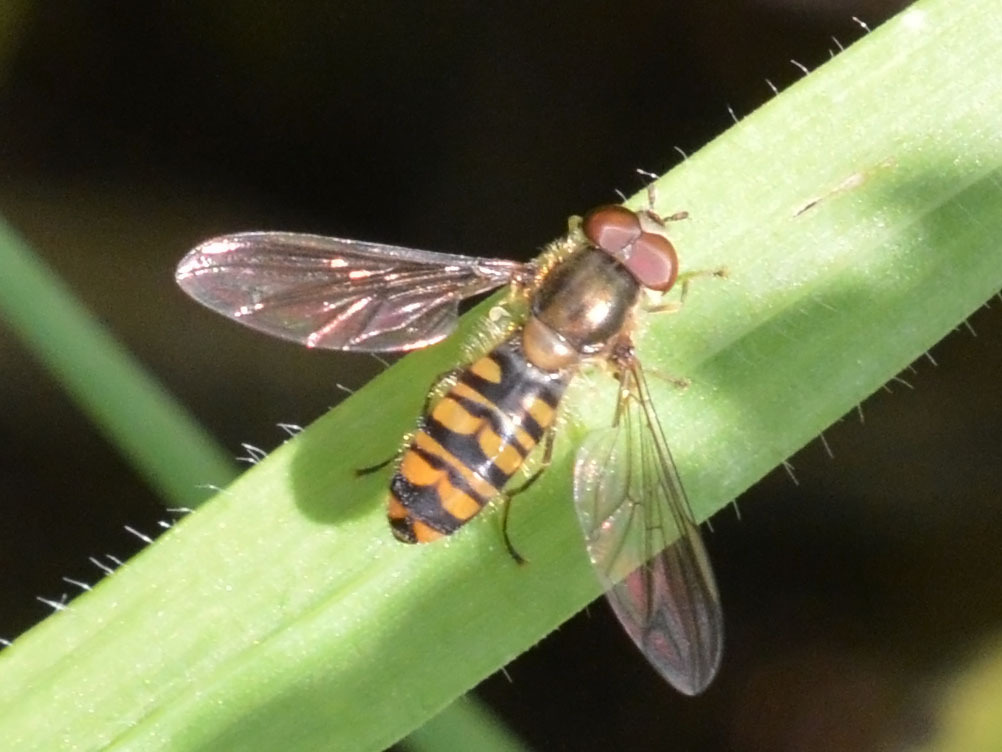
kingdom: Animalia
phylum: Arthropoda
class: Insecta
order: Diptera
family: Syrphidae
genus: Episyrphus
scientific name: Episyrphus balteatus
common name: Marmalade hoverfly
